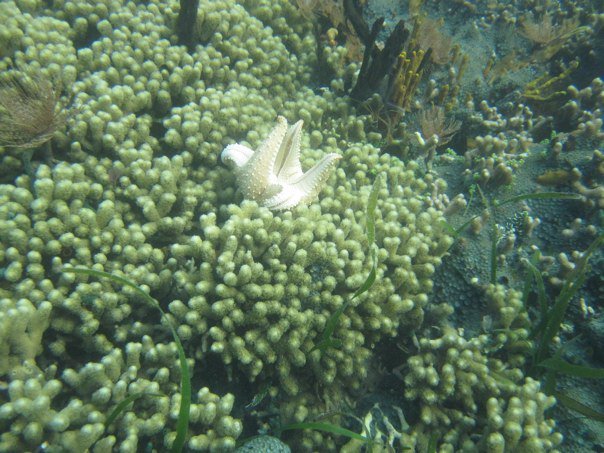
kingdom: Animalia
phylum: Echinodermata
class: Asteroidea
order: Valvatida
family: Oreasteridae
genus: Oreaster
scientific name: Oreaster reticulatus
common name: Cushion sea star
